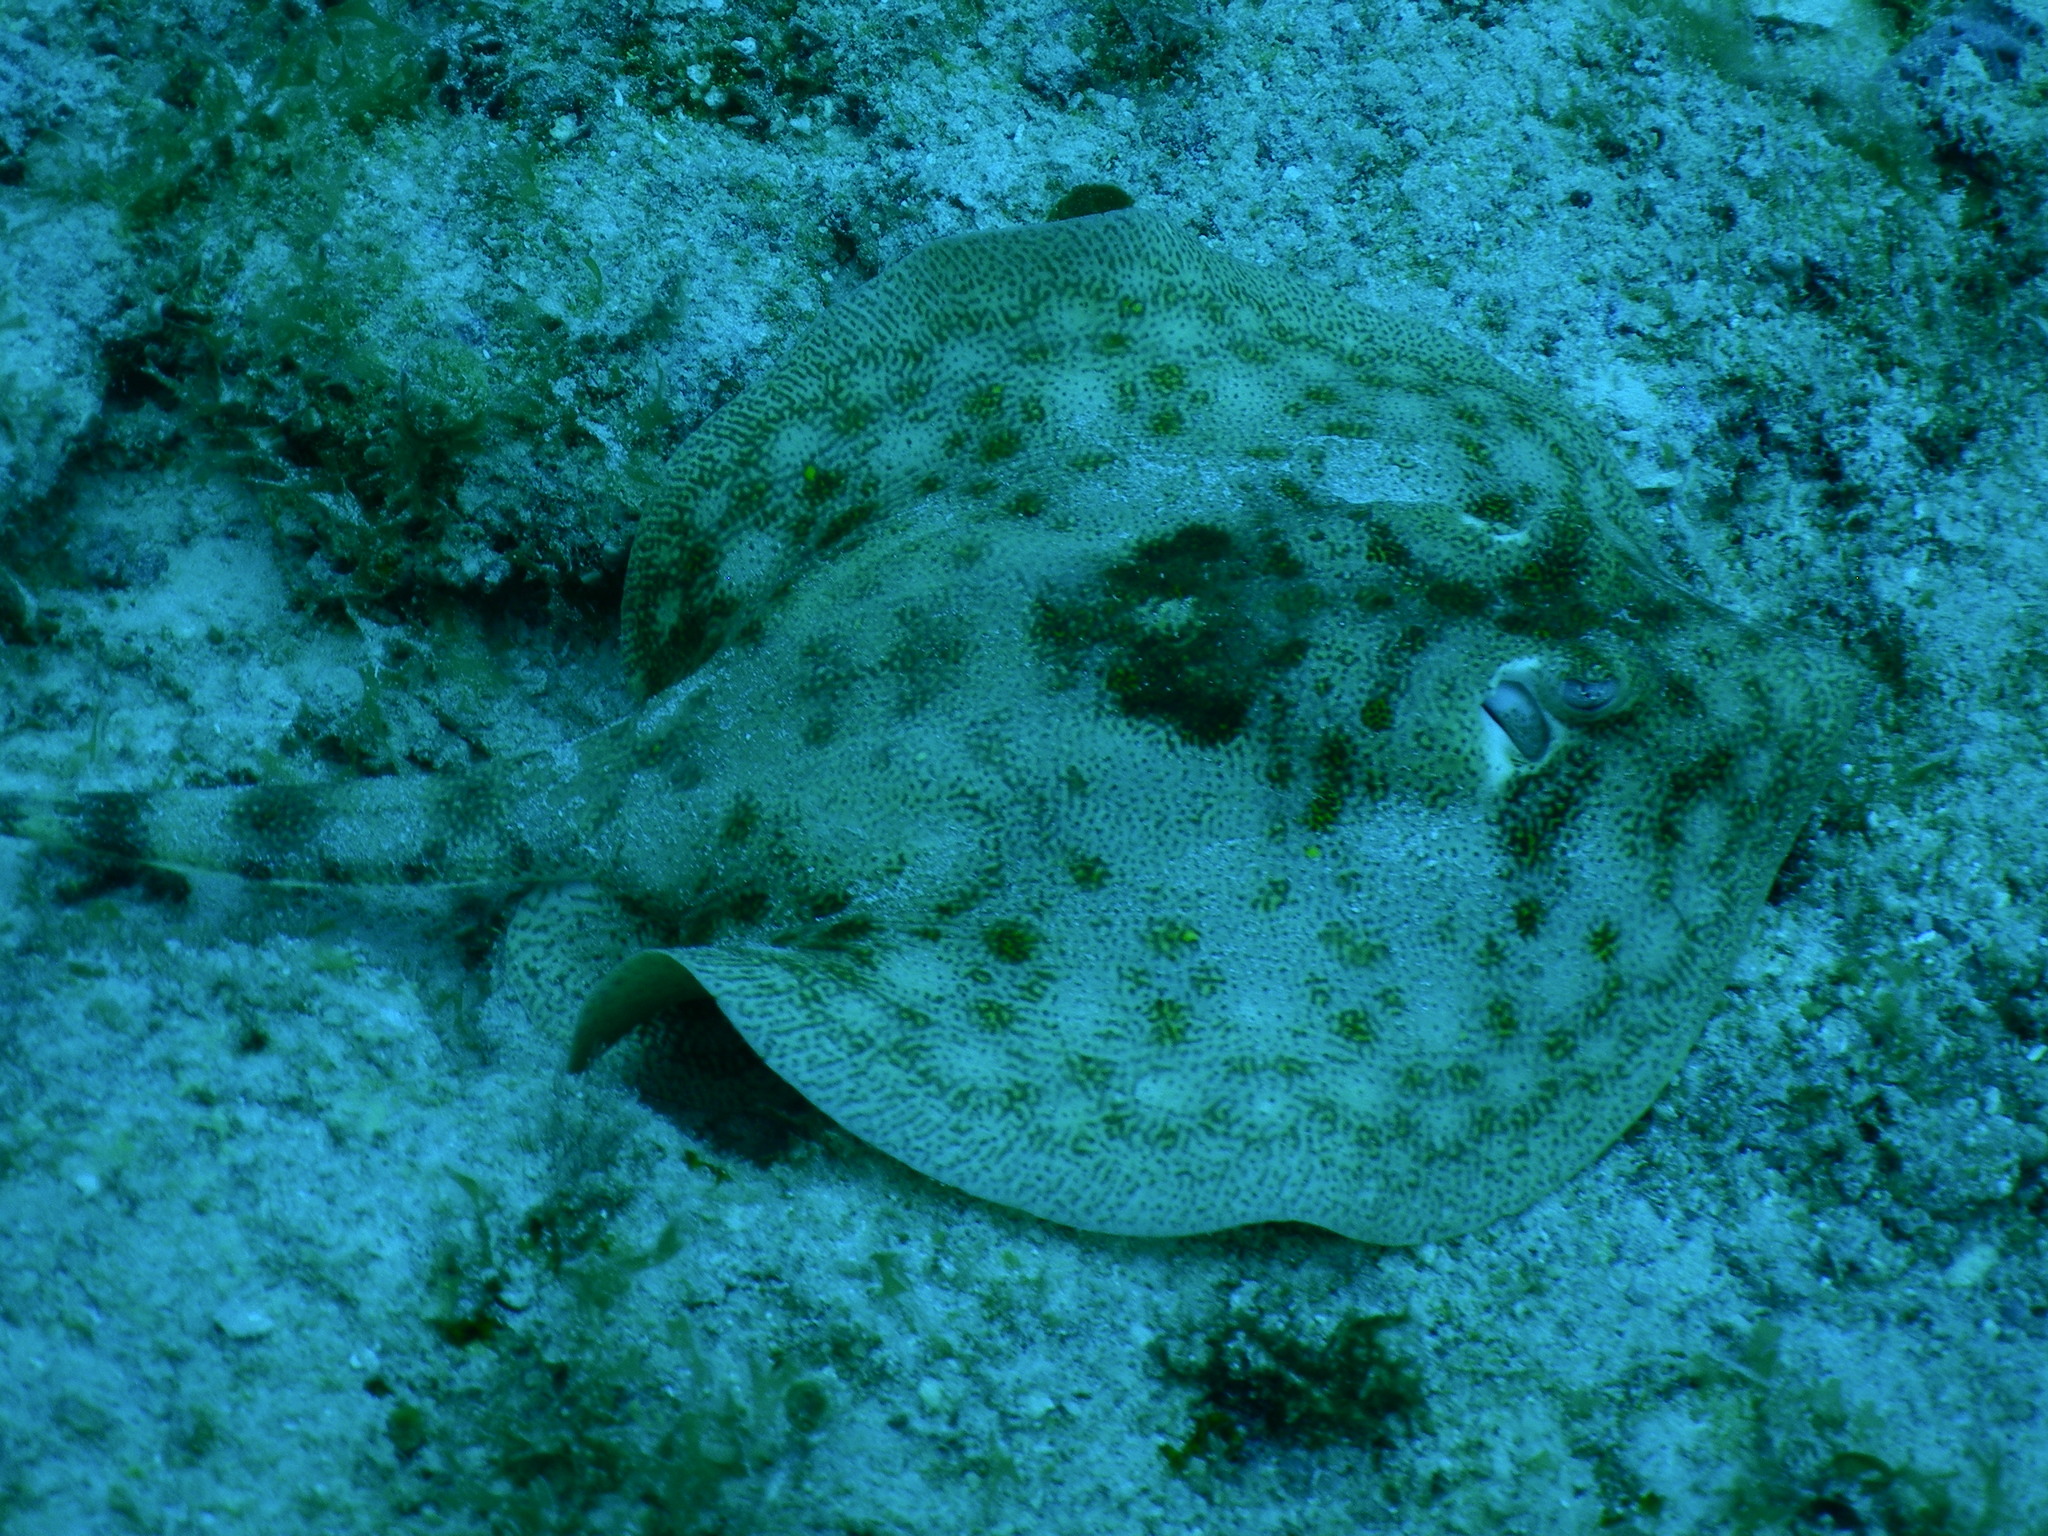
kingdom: Animalia
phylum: Chordata
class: Elasmobranchii
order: Myliobatiformes
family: Urotrygonidae
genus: Urobatis
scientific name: Urobatis jamaicensis
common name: Yellow stingray
